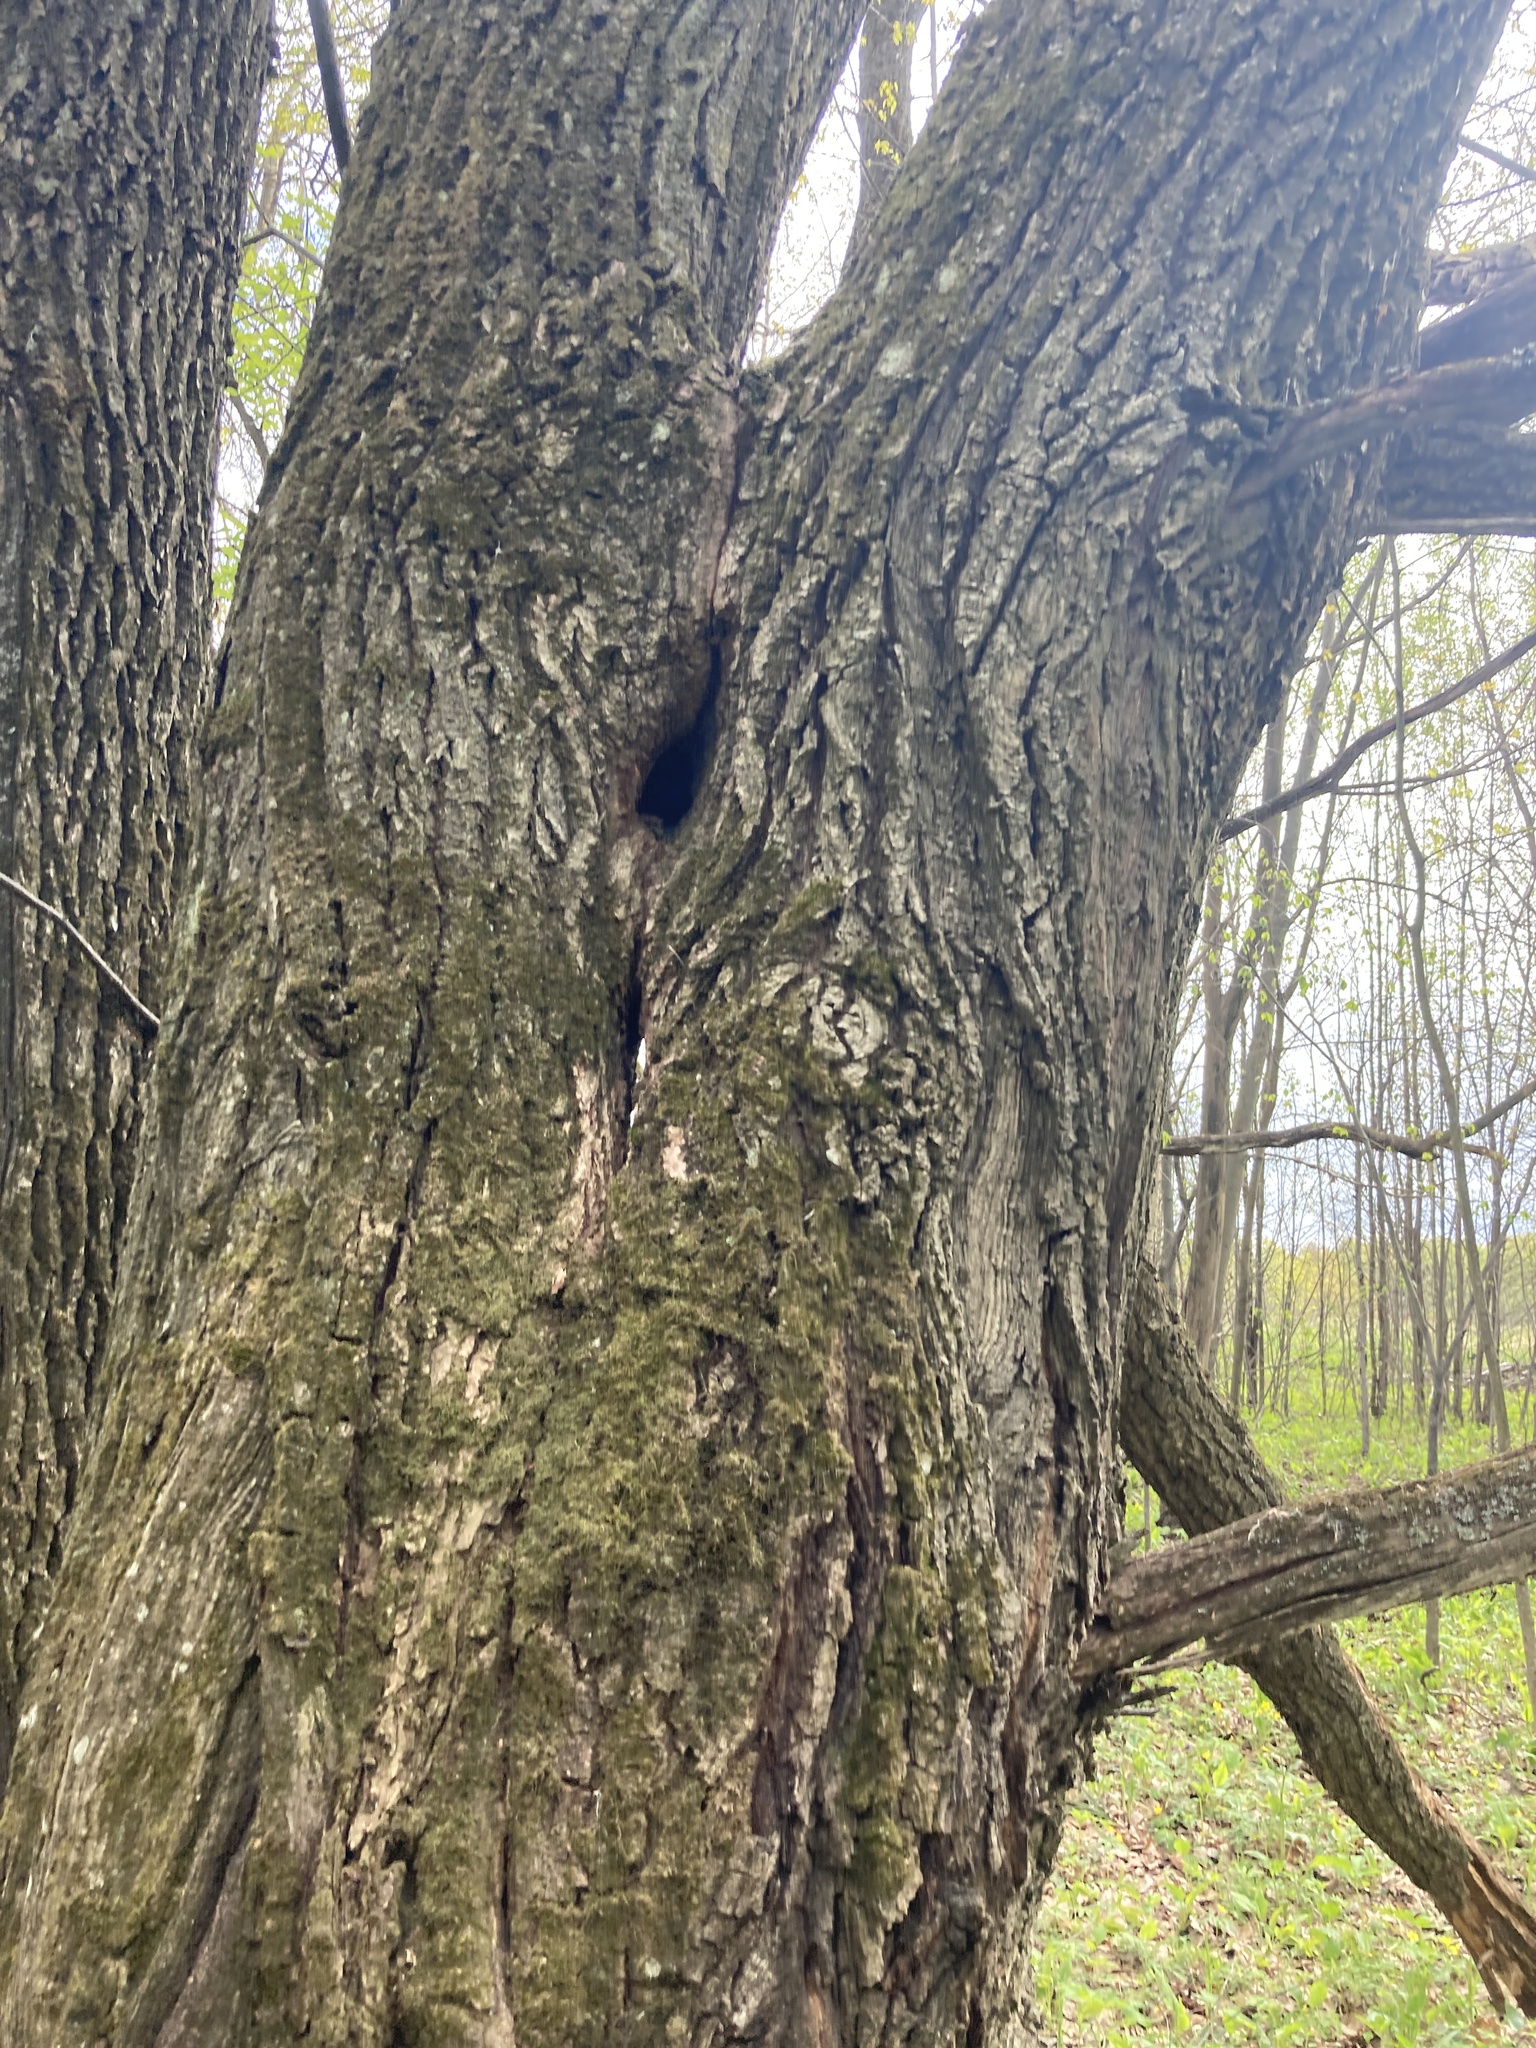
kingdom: Plantae
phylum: Tracheophyta
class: Magnoliopsida
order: Fagales
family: Fagaceae
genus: Quercus
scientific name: Quercus robur
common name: Pedunculate oak
